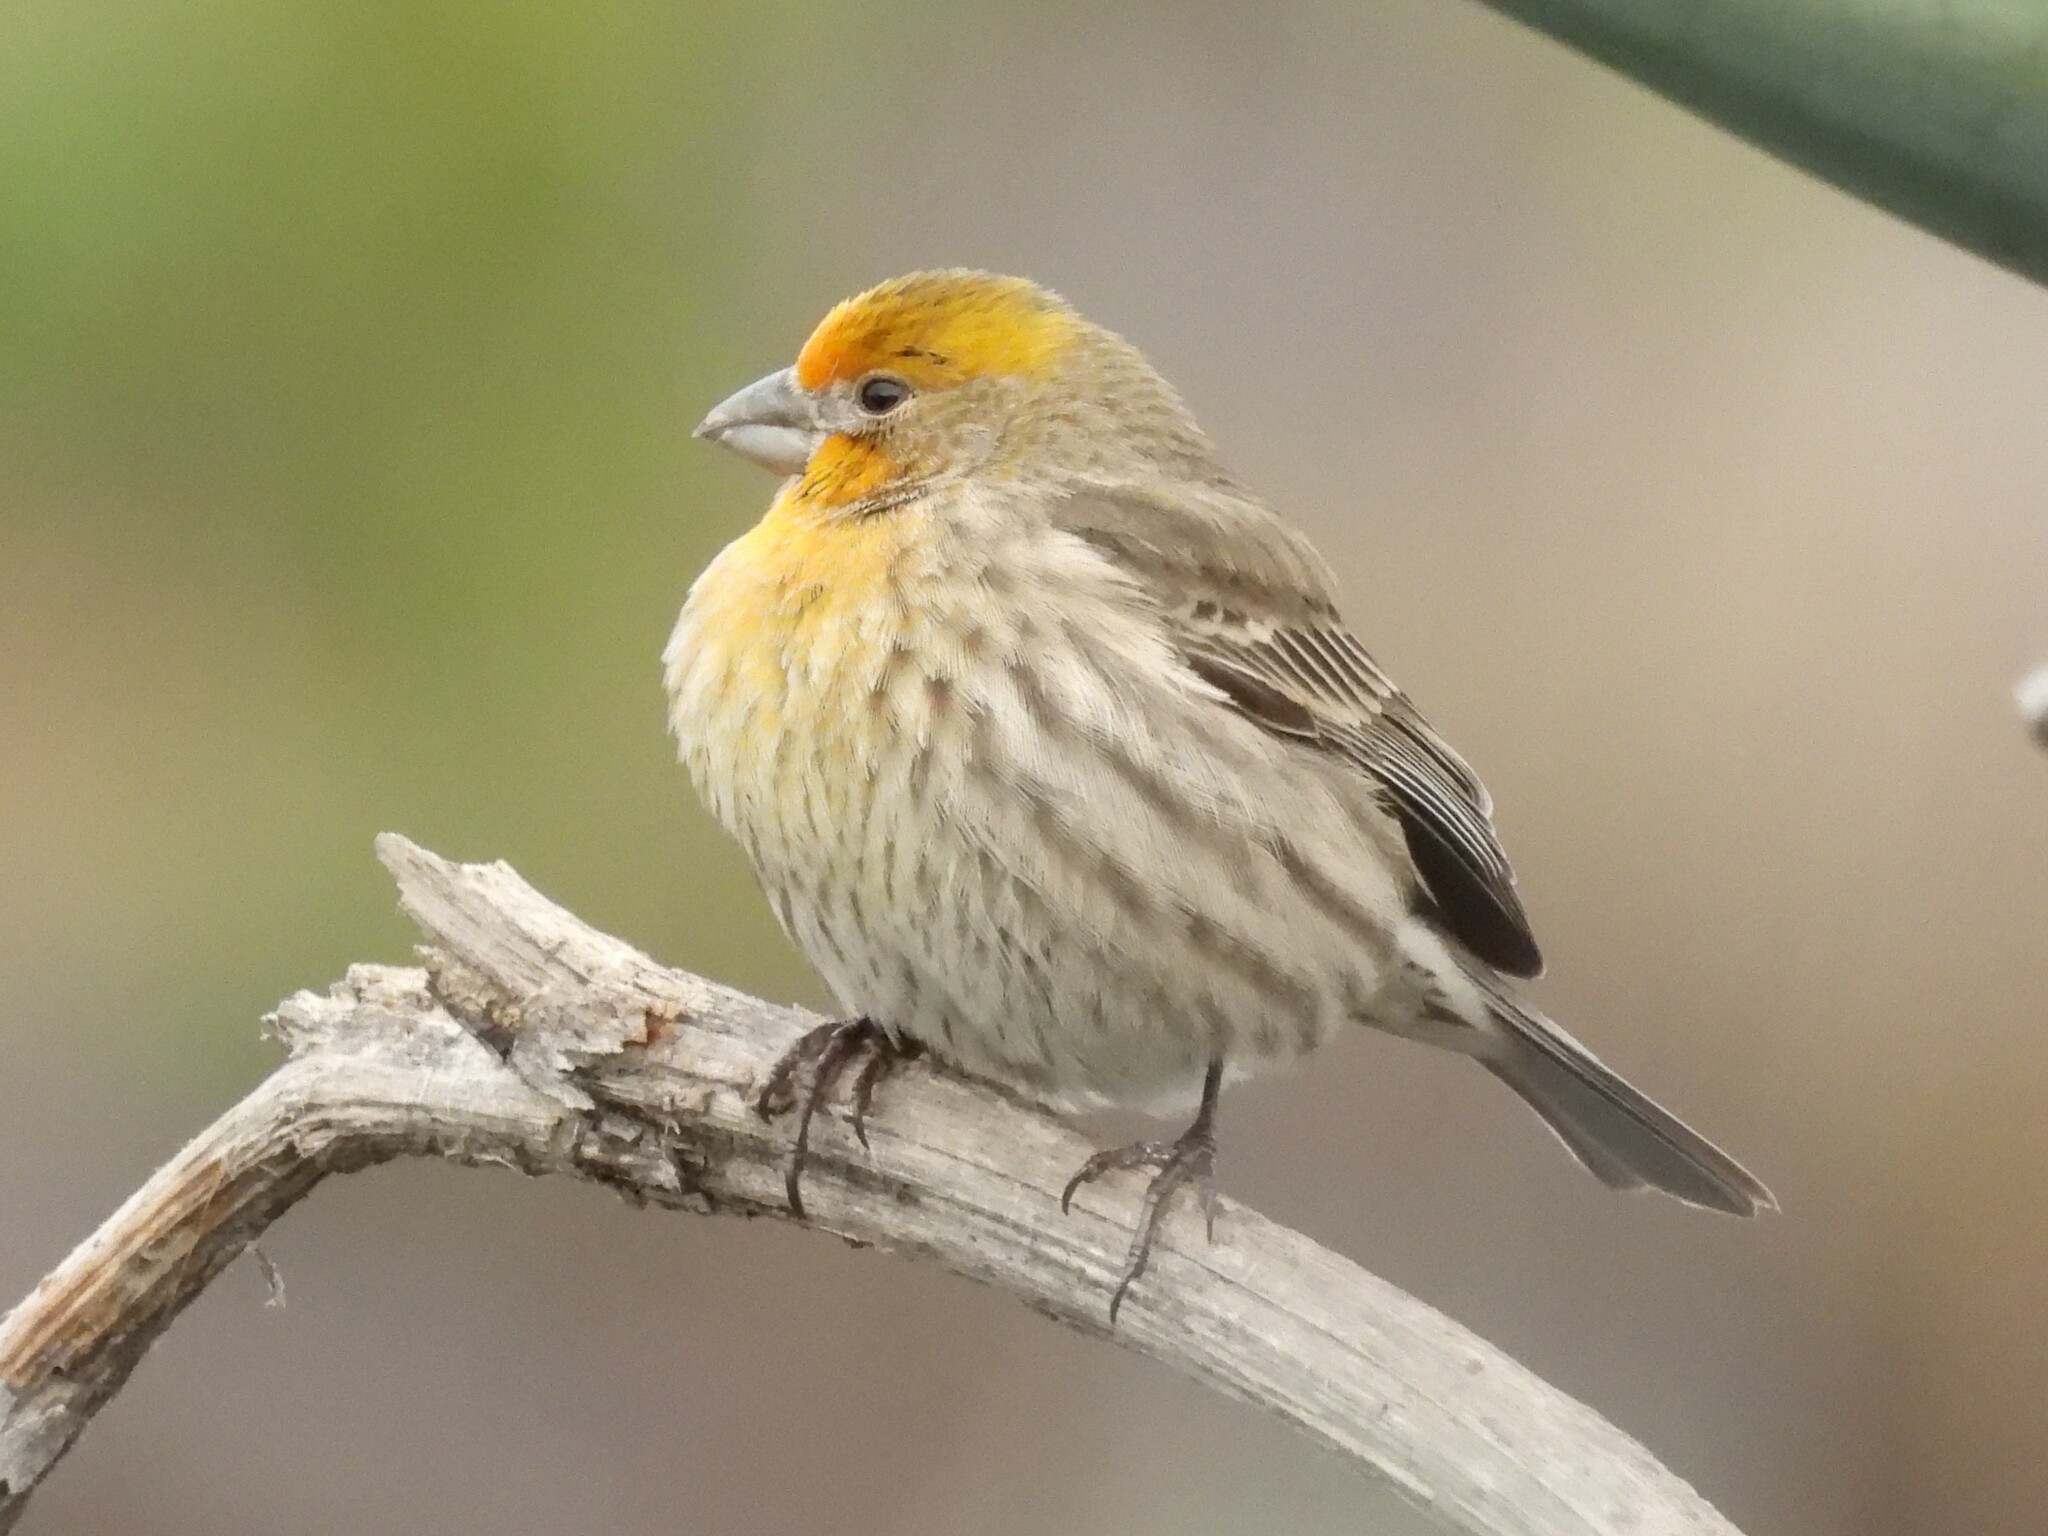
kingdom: Animalia
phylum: Chordata
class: Aves
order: Passeriformes
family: Fringillidae
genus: Haemorhous
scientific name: Haemorhous mexicanus
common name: House finch
